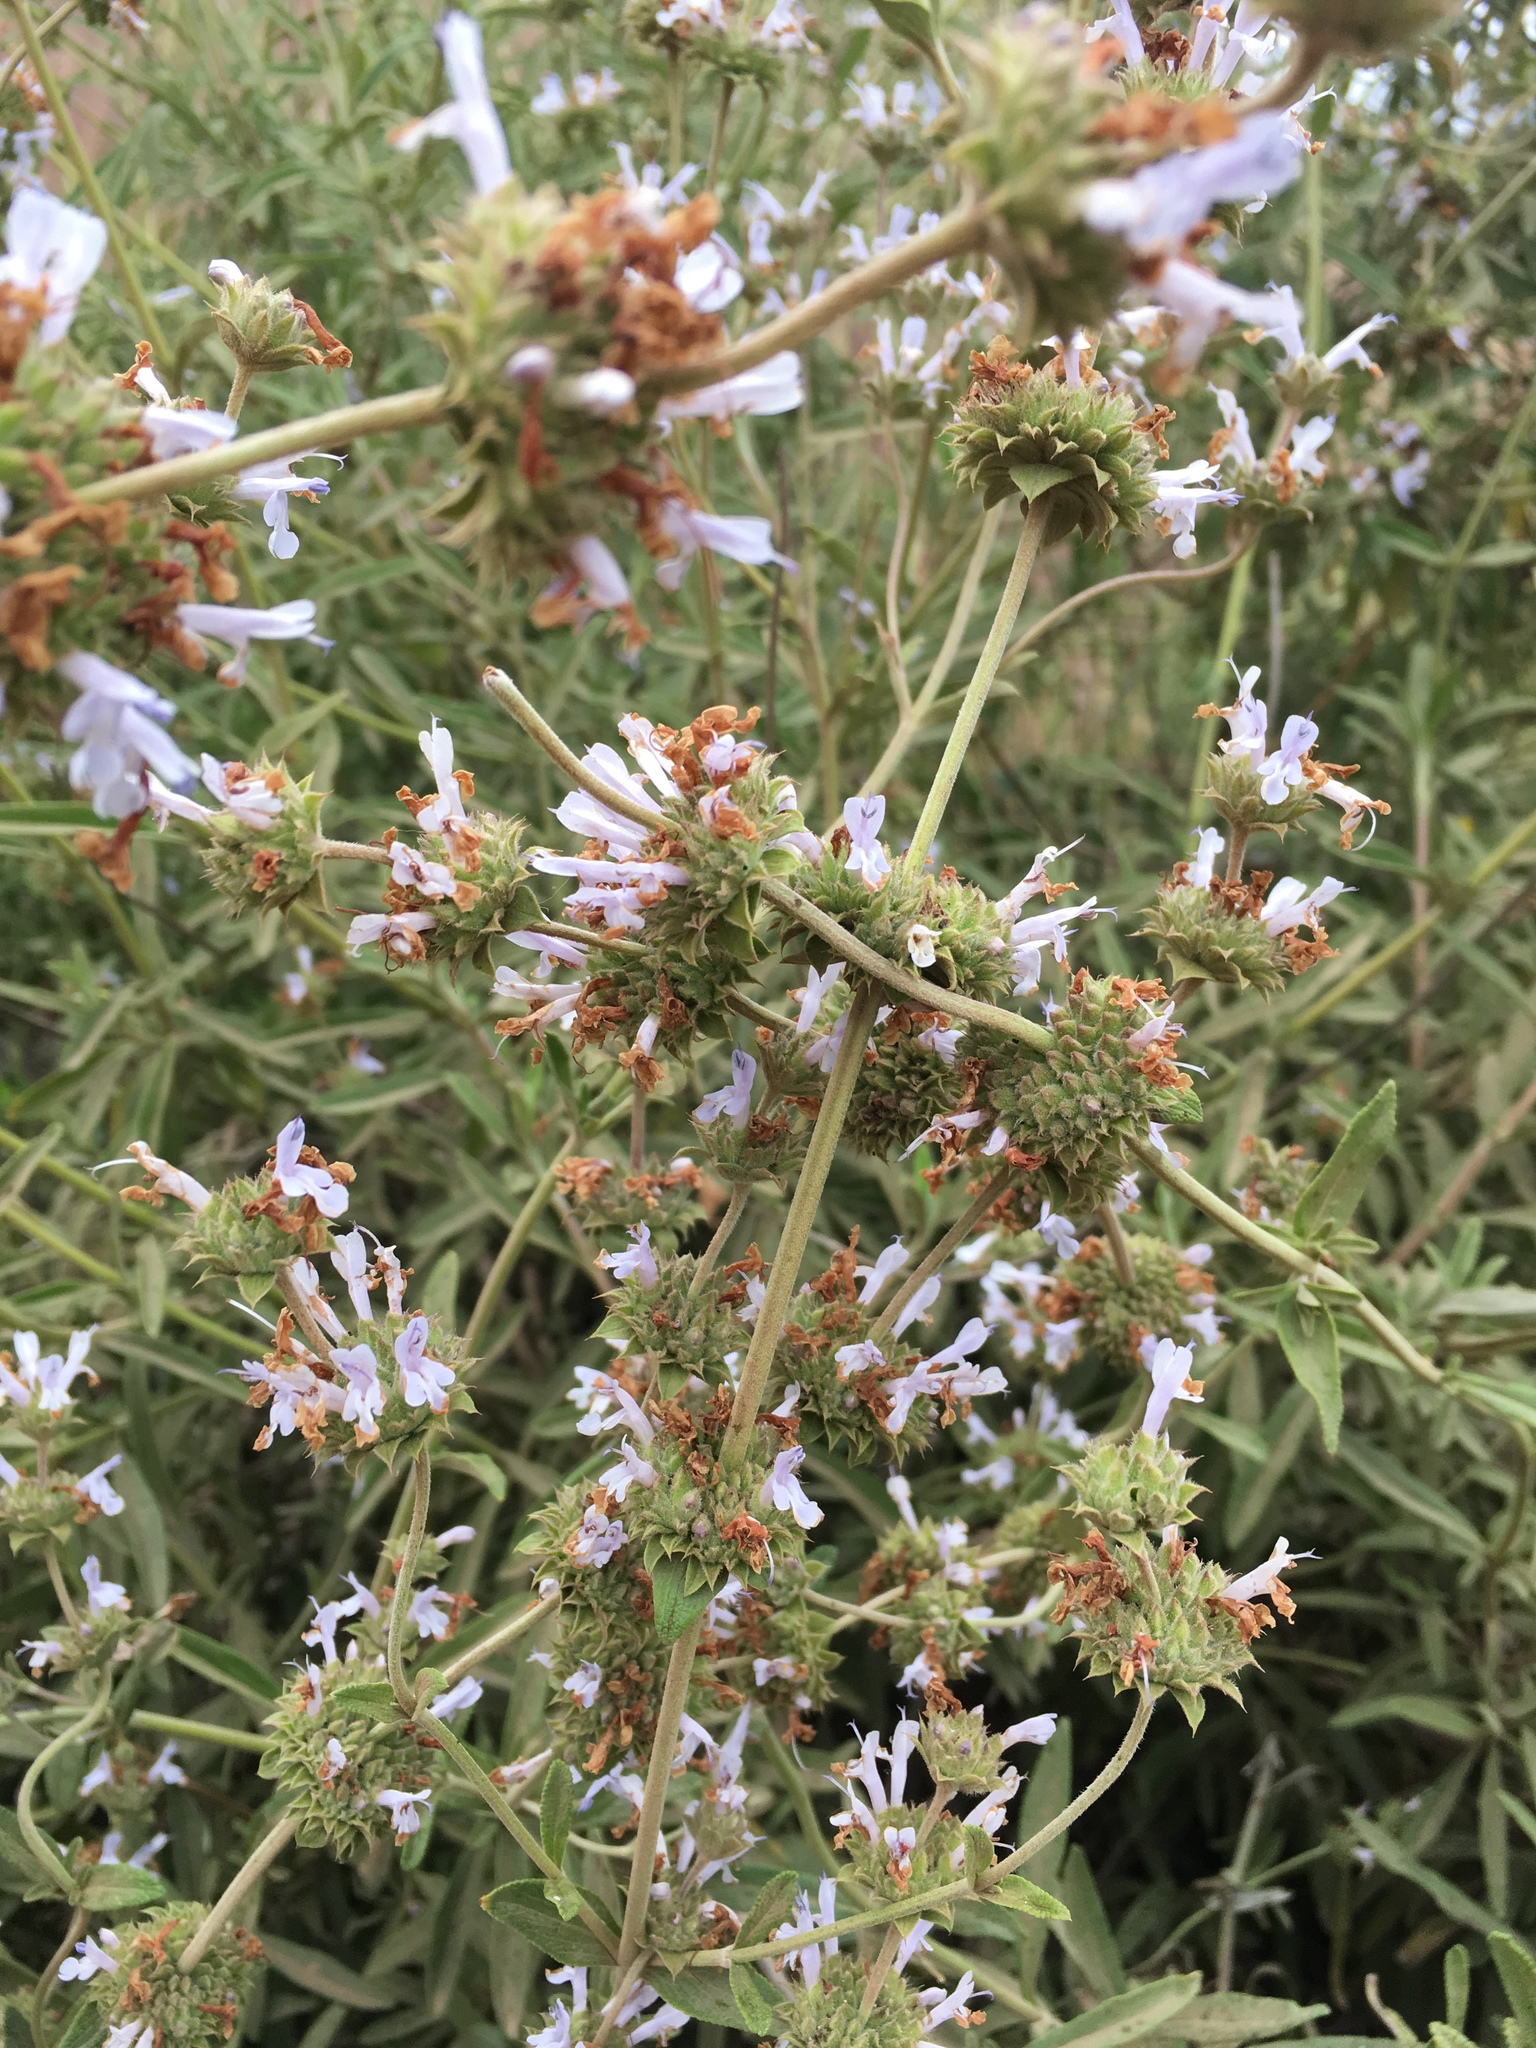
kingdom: Plantae
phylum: Tracheophyta
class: Magnoliopsida
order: Lamiales
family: Lamiaceae
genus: Salvia
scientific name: Salvia mellifera
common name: Black sage
